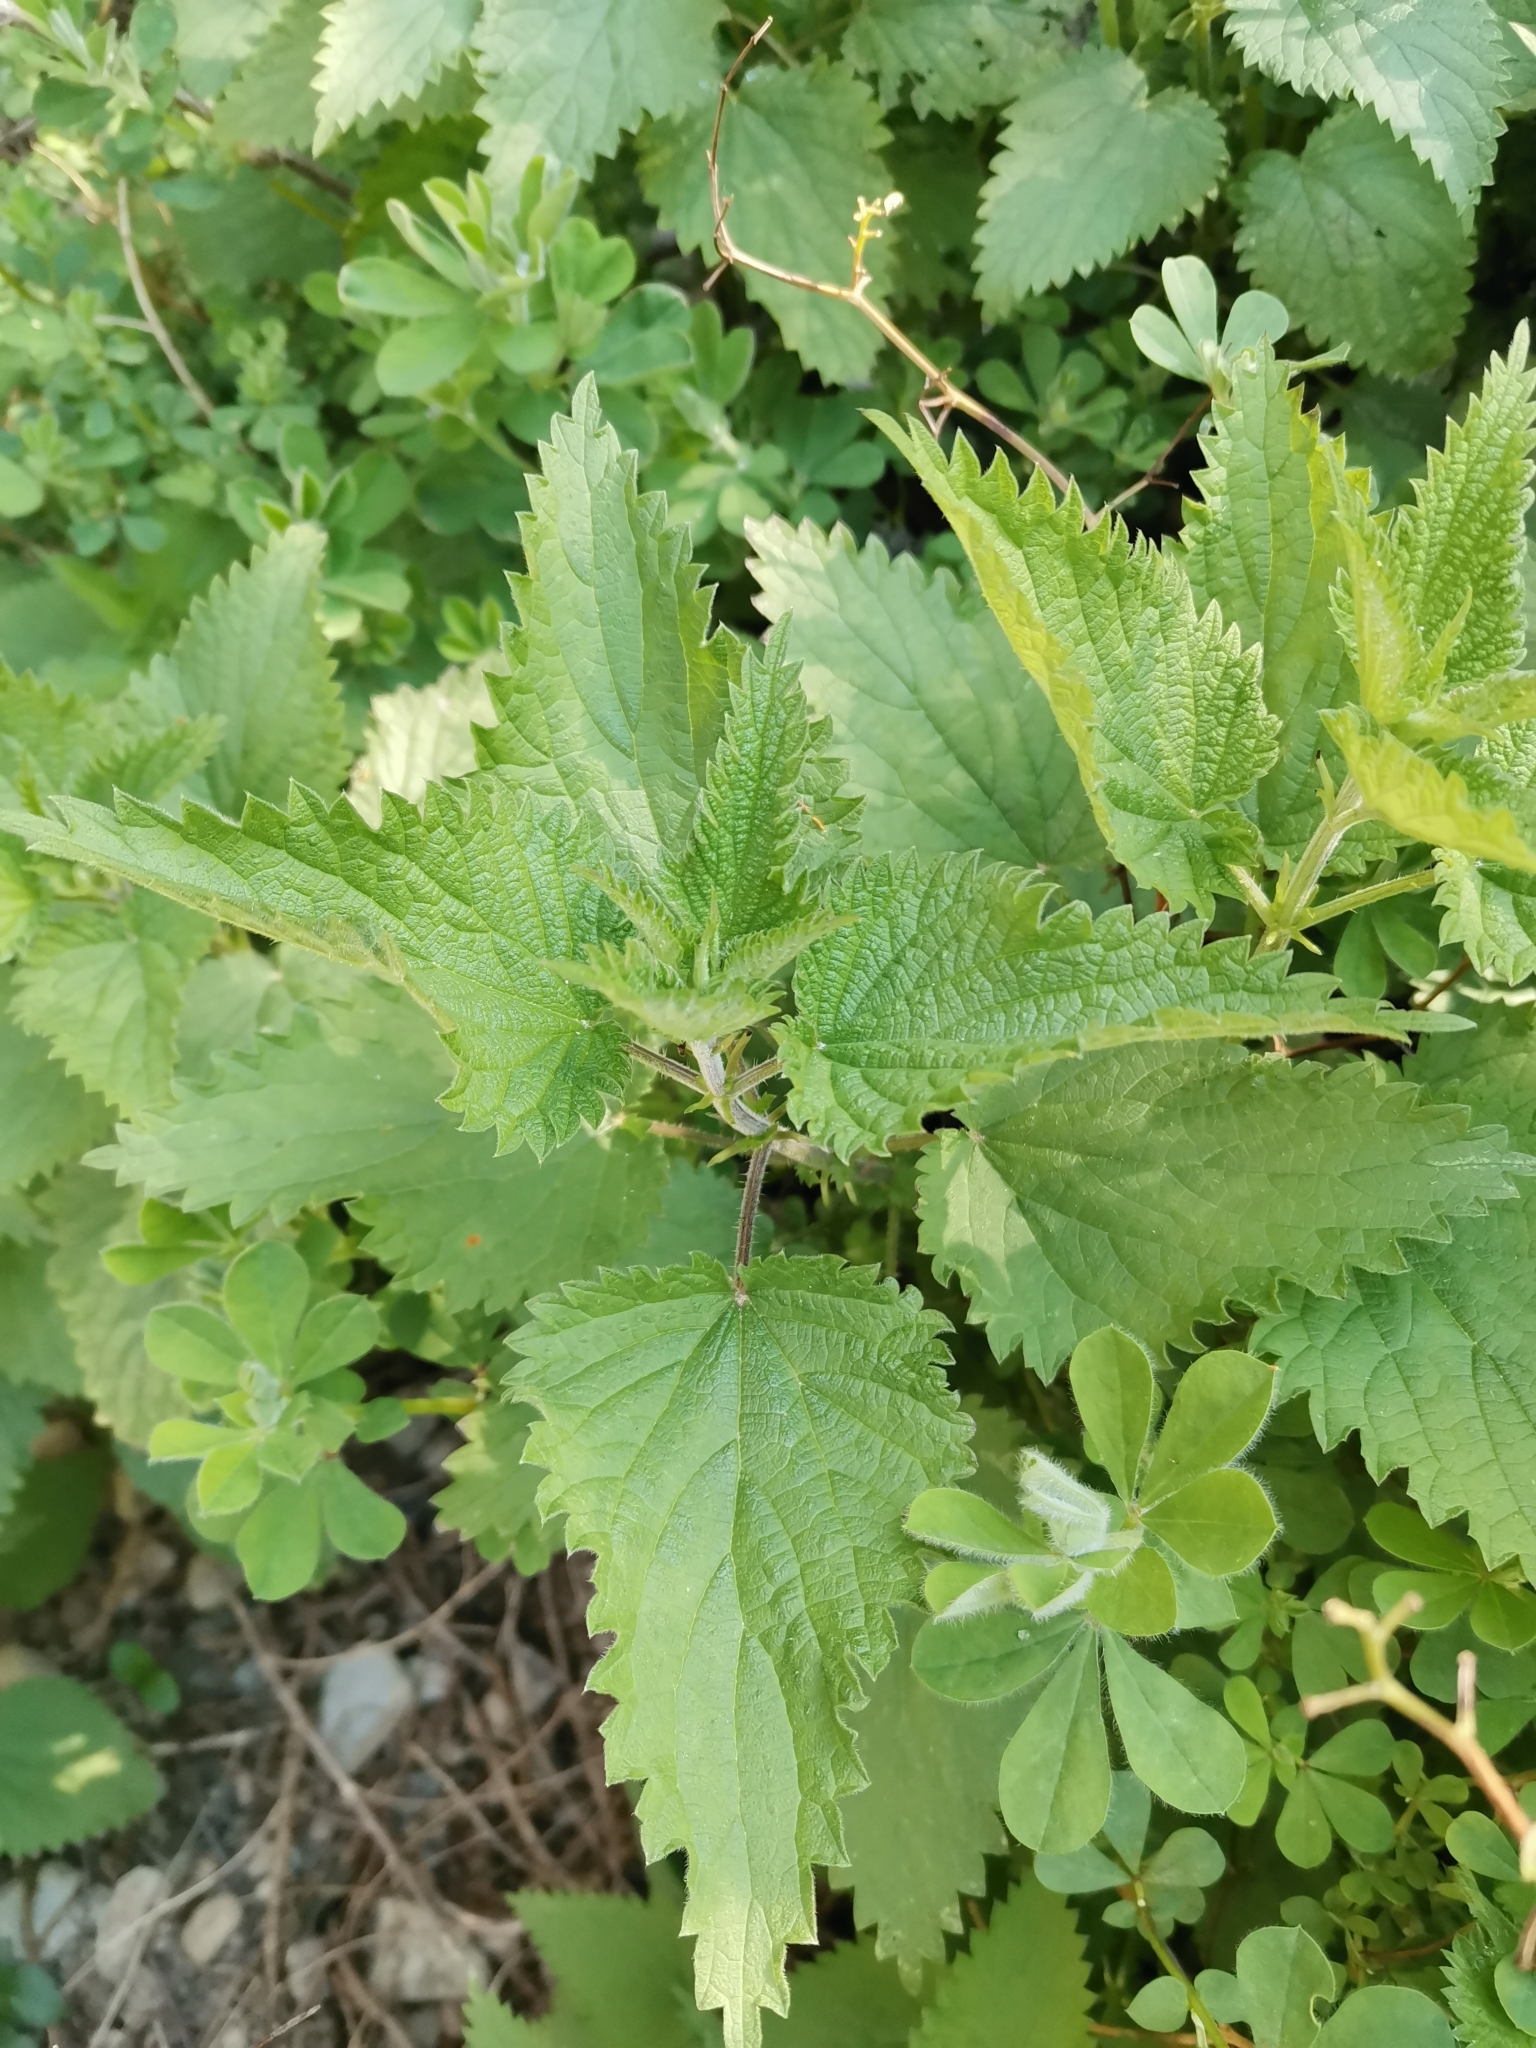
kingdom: Plantae
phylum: Tracheophyta
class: Magnoliopsida
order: Rosales
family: Urticaceae
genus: Urtica
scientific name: Urtica dioica
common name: Common nettle
